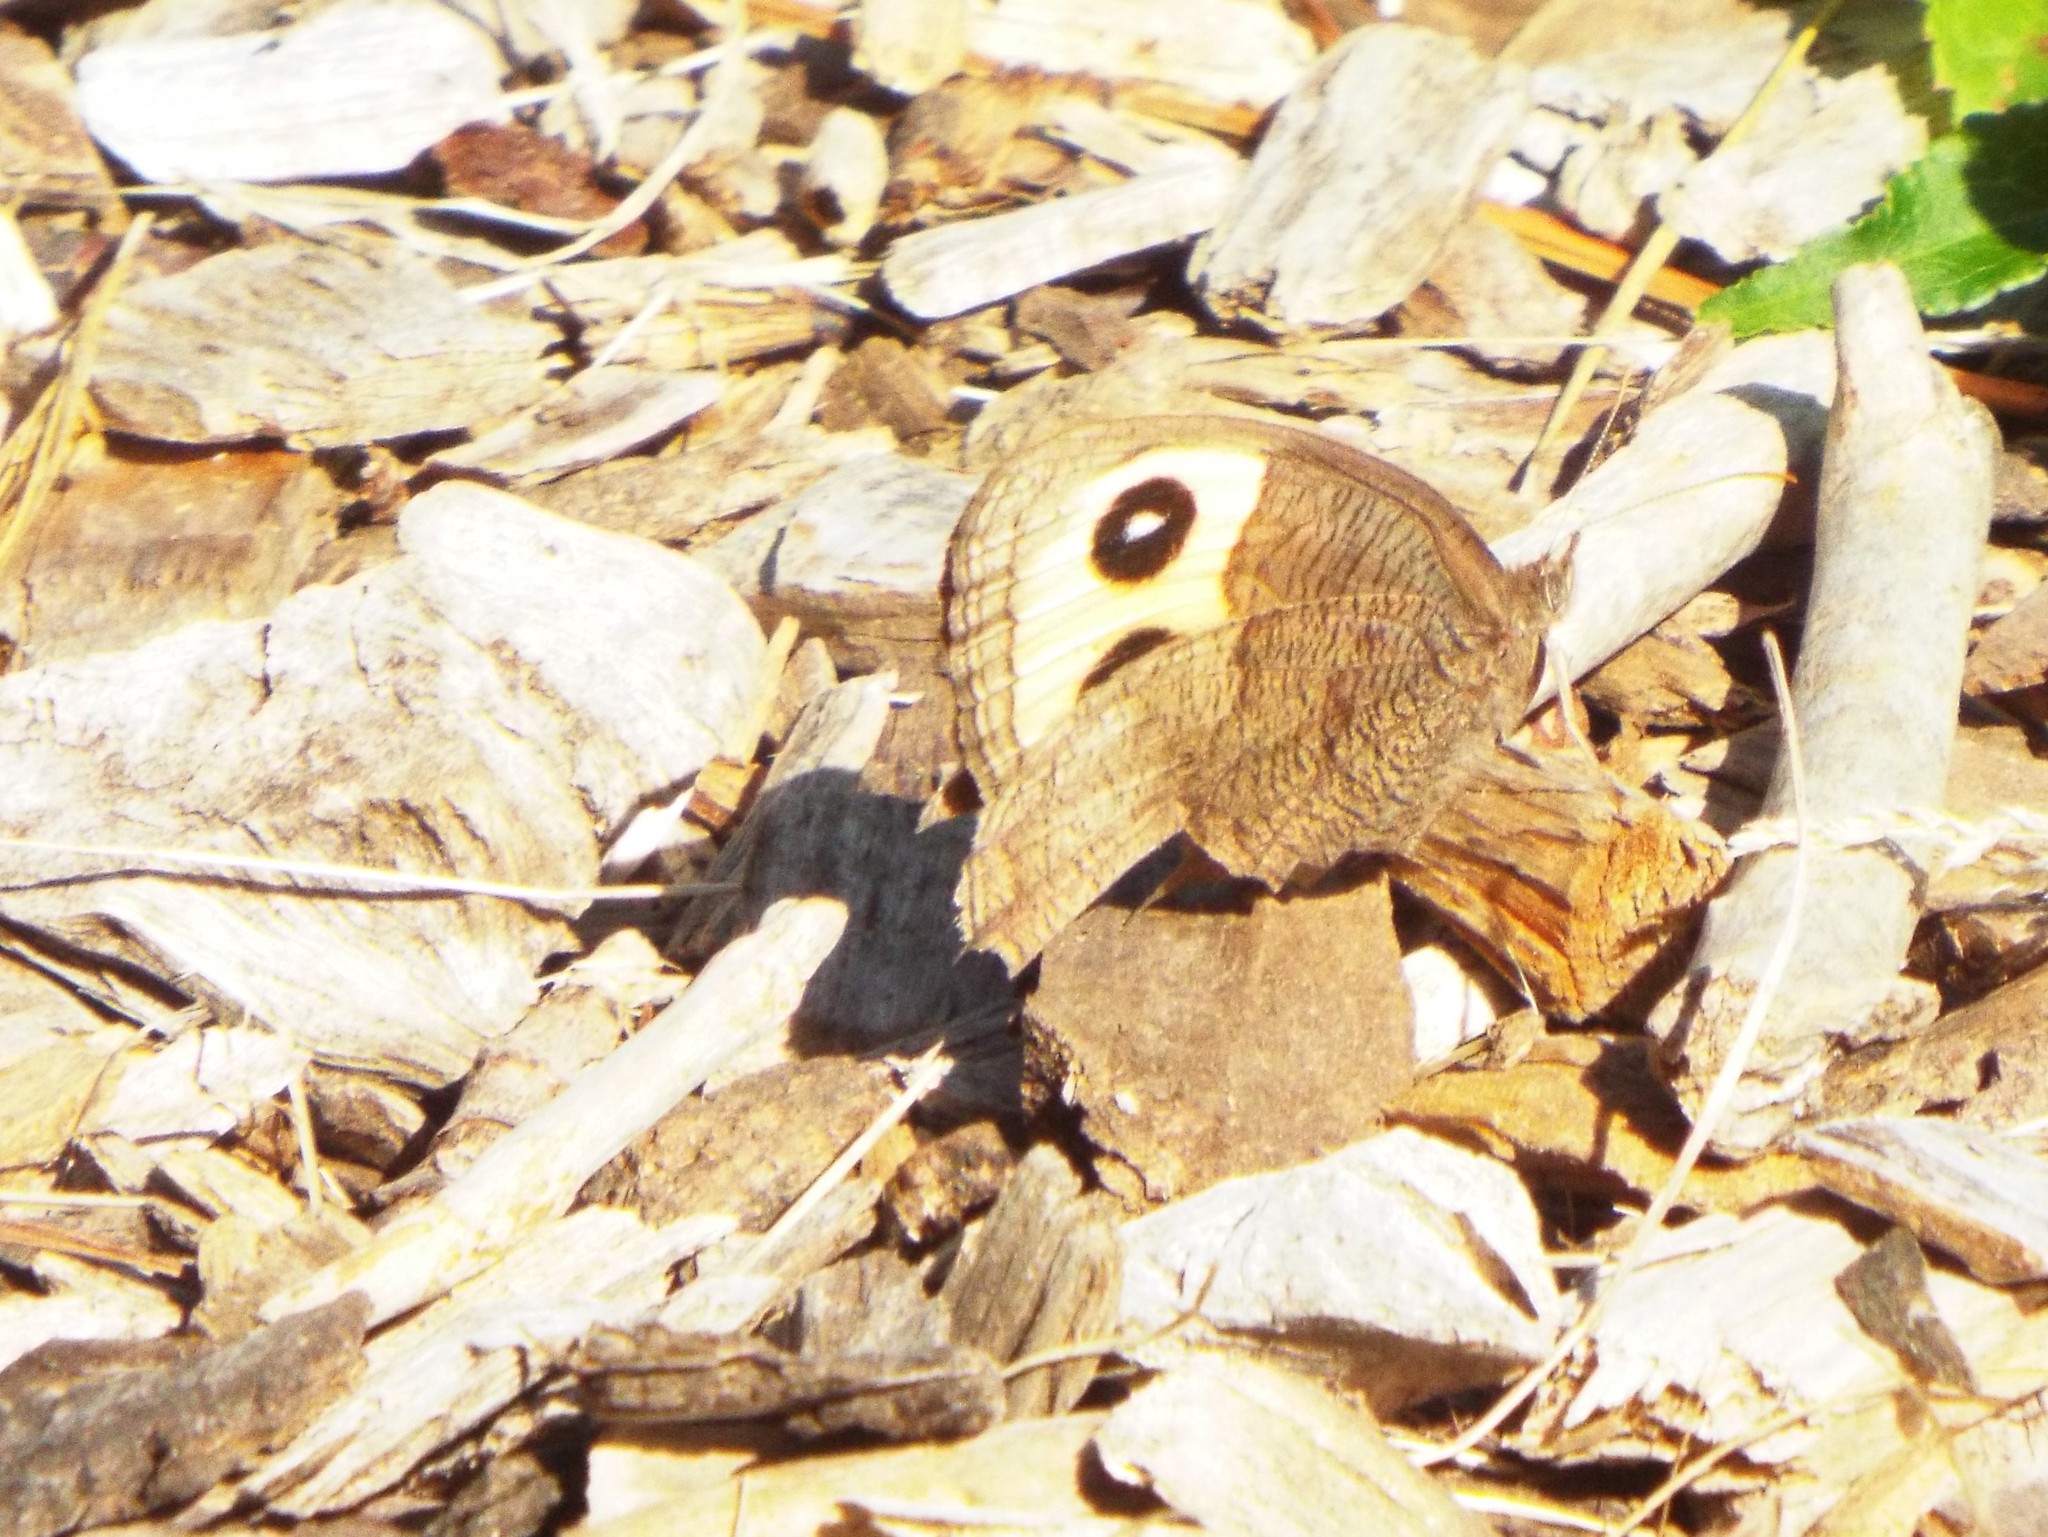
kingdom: Animalia
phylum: Arthropoda
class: Insecta
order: Lepidoptera
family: Nymphalidae
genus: Cercyonis
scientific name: Cercyonis pegala
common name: Common wood-nymph
